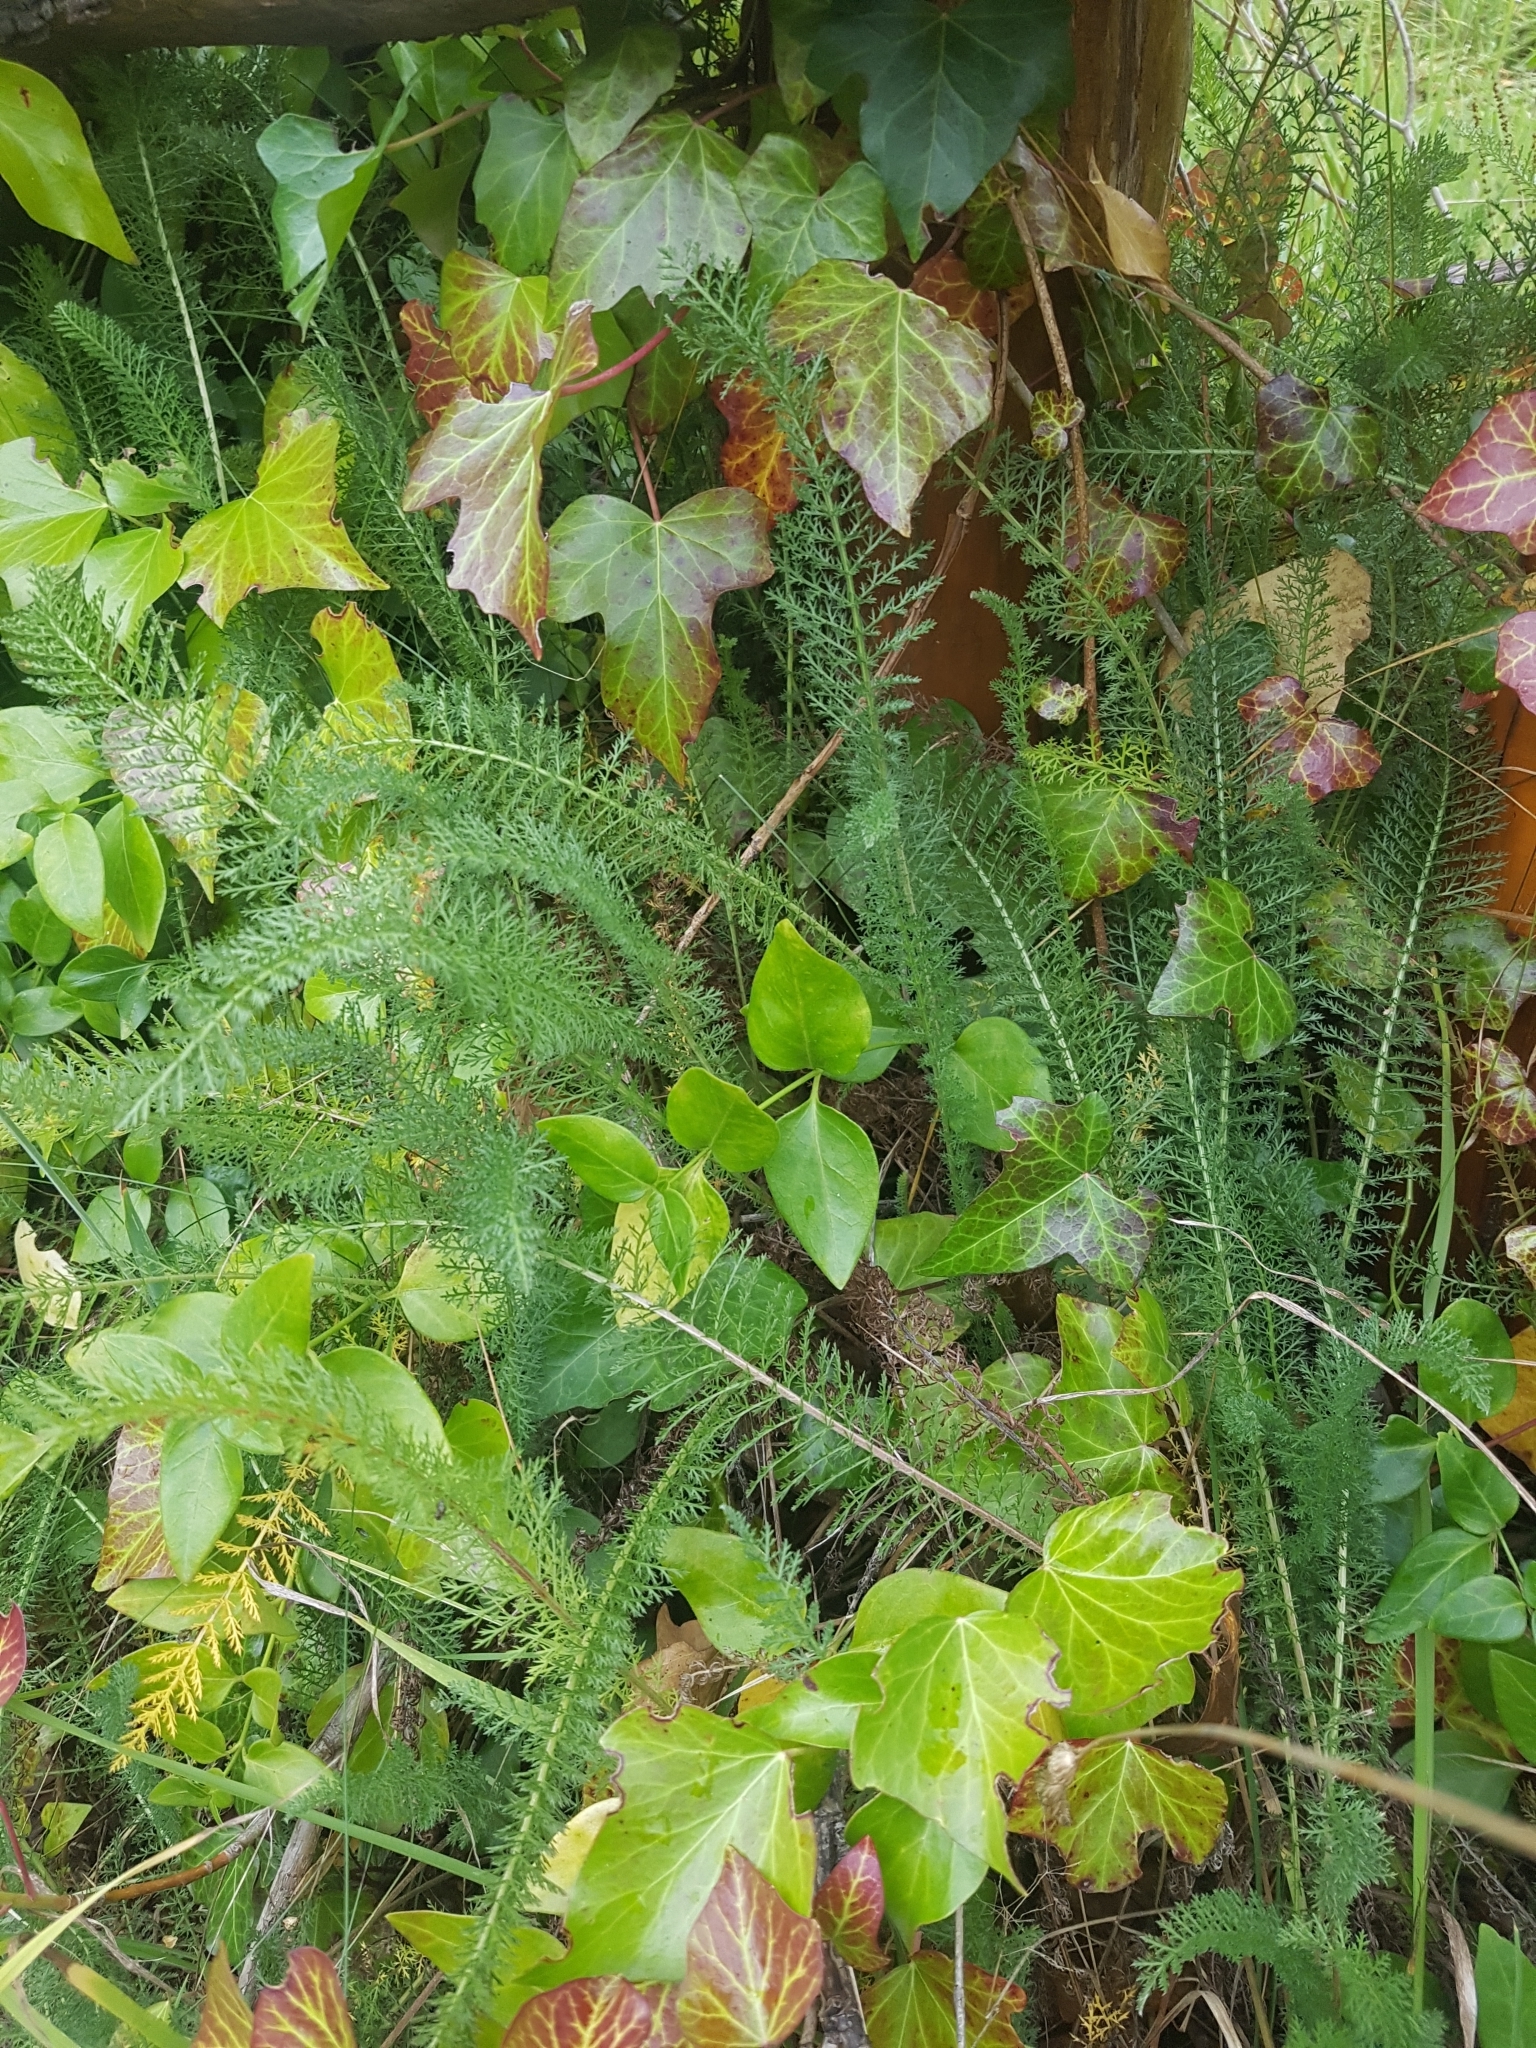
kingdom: Plantae
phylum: Tracheophyta
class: Magnoliopsida
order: Asterales
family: Asteraceae
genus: Achillea
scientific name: Achillea millefolium
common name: Yarrow
